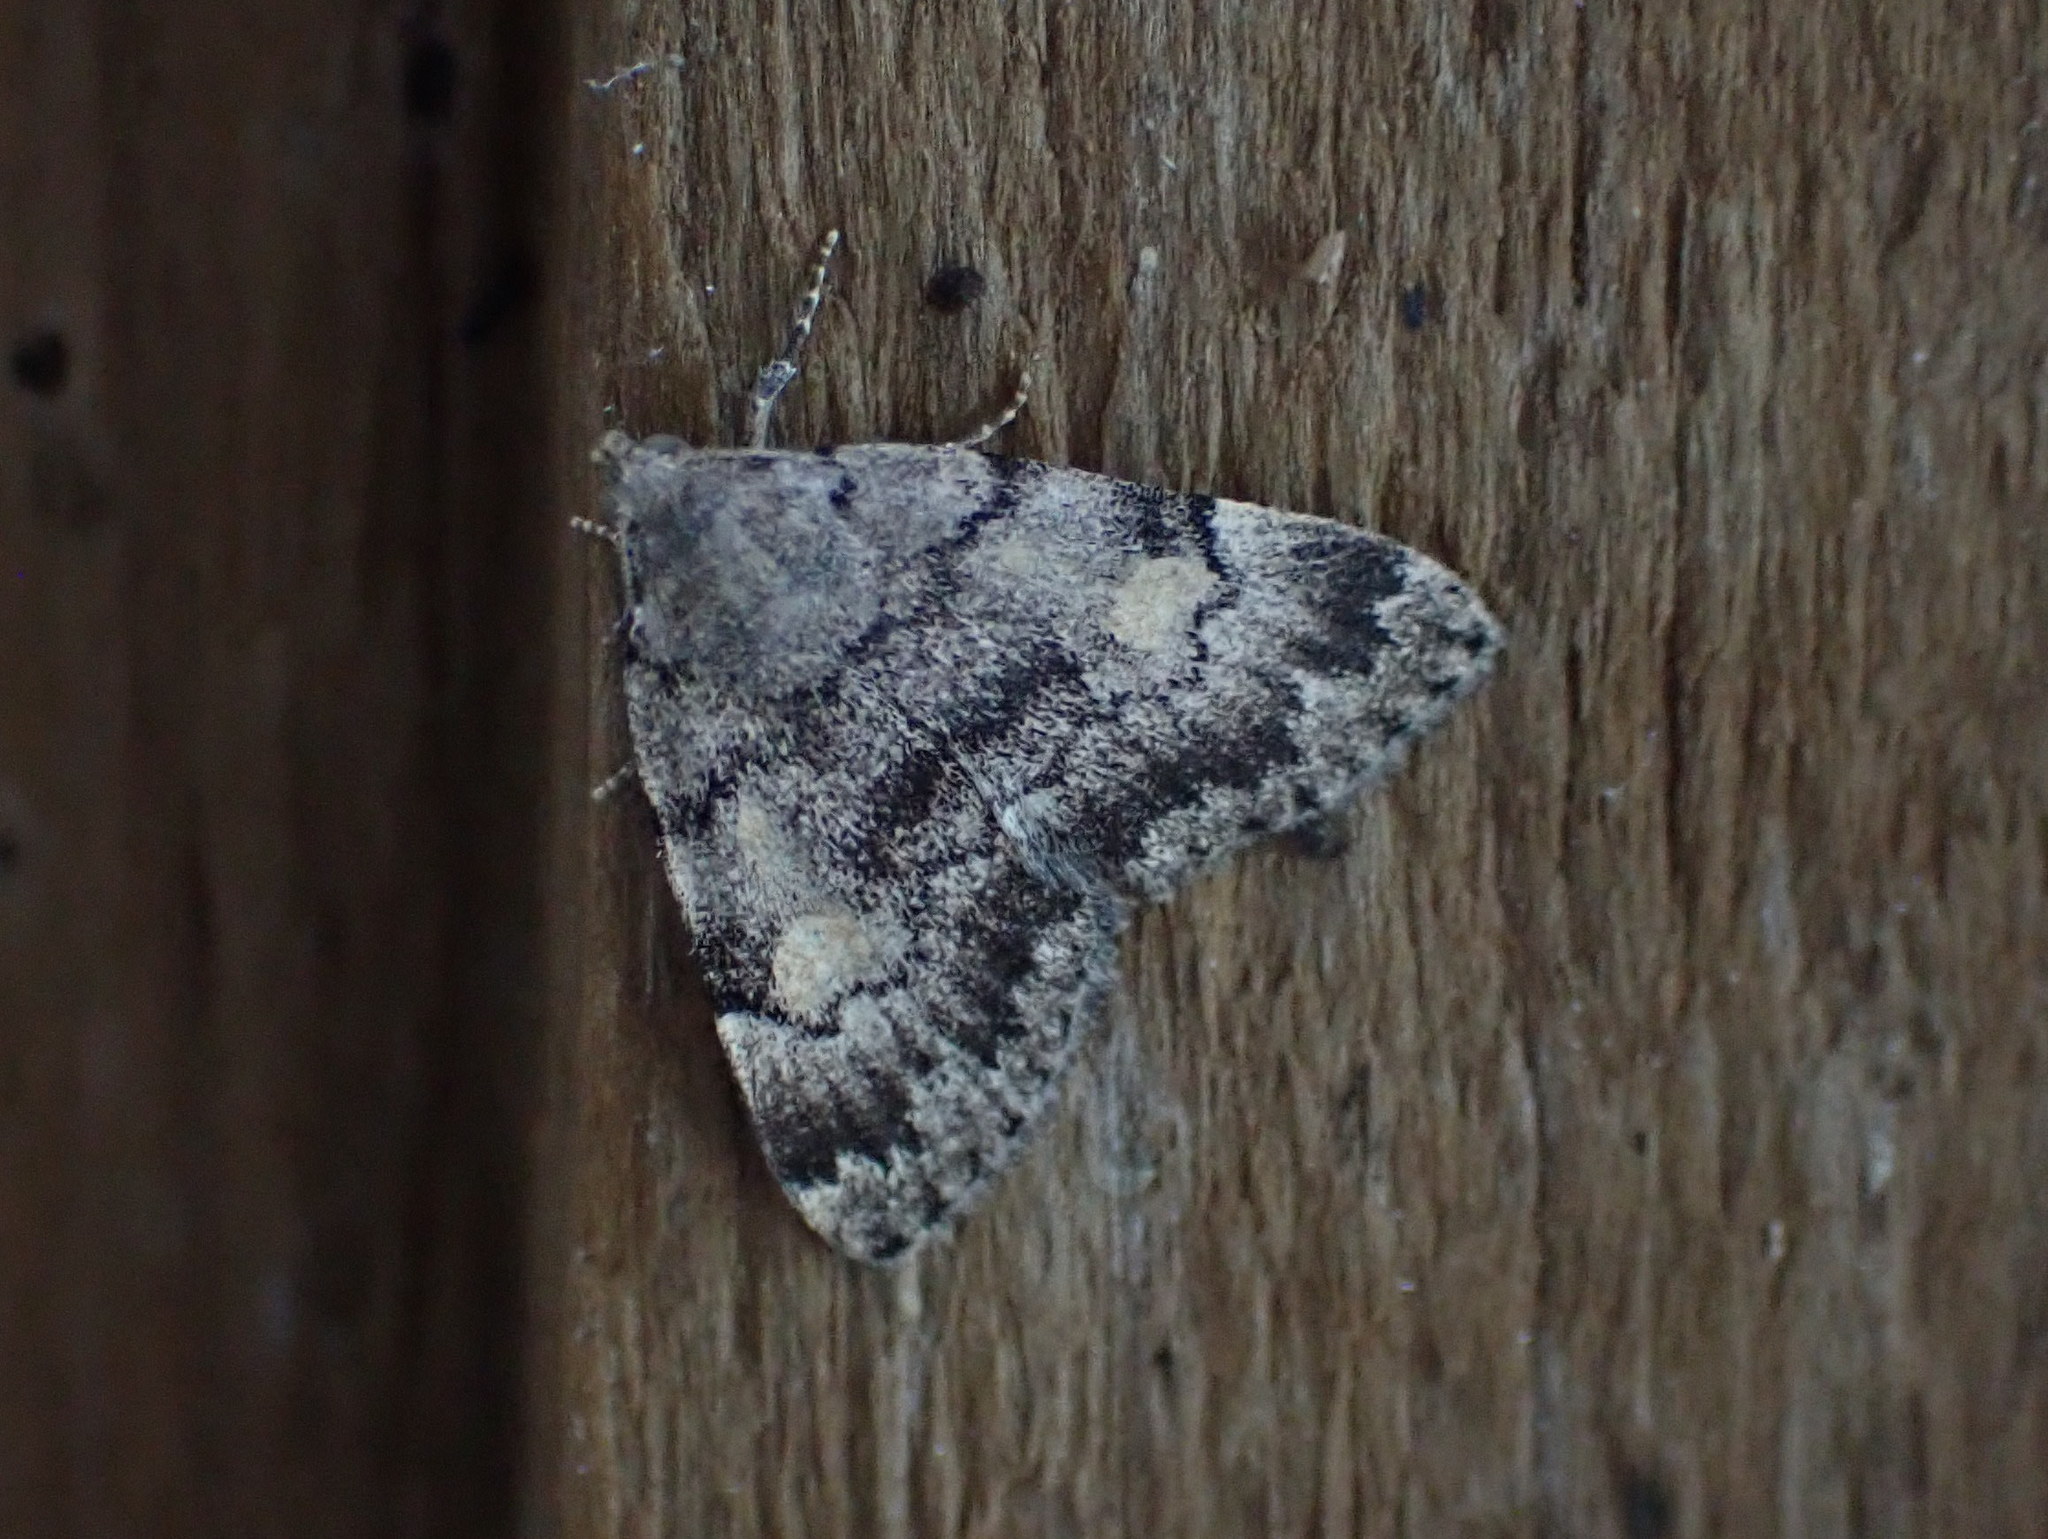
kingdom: Animalia
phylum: Arthropoda
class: Insecta
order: Lepidoptera
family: Erebidae
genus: Idia
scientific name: Idia aemula
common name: Common idia moth
